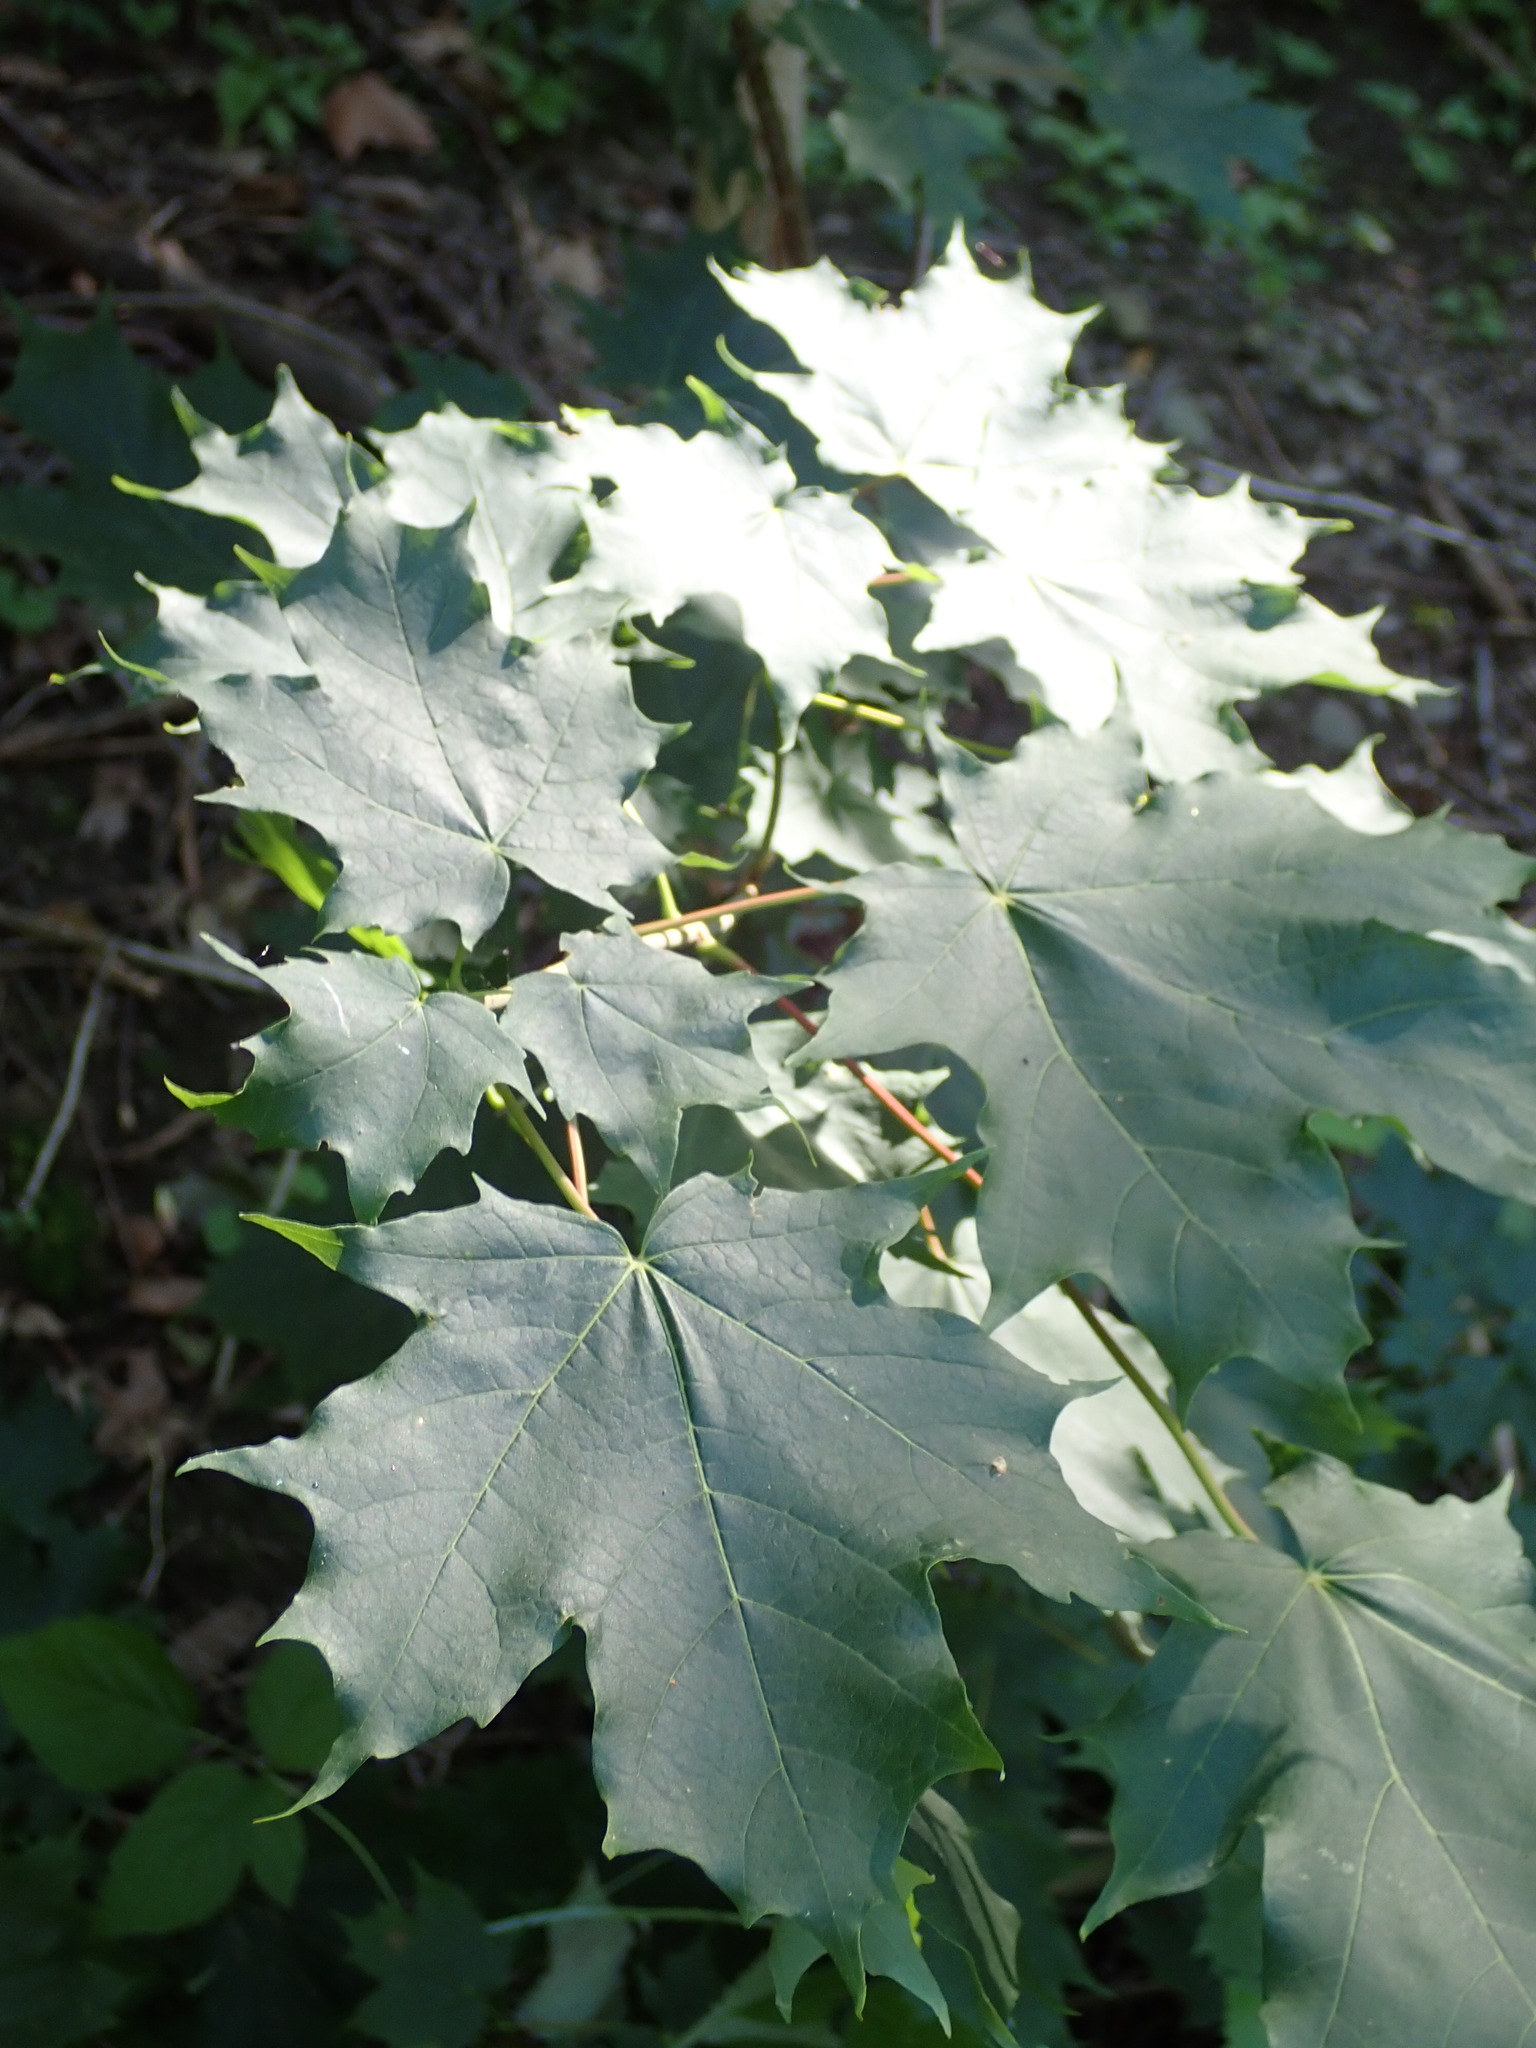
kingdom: Plantae
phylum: Tracheophyta
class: Magnoliopsida
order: Sapindales
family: Sapindaceae
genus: Acer
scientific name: Acer saccharum
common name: Sugar maple
